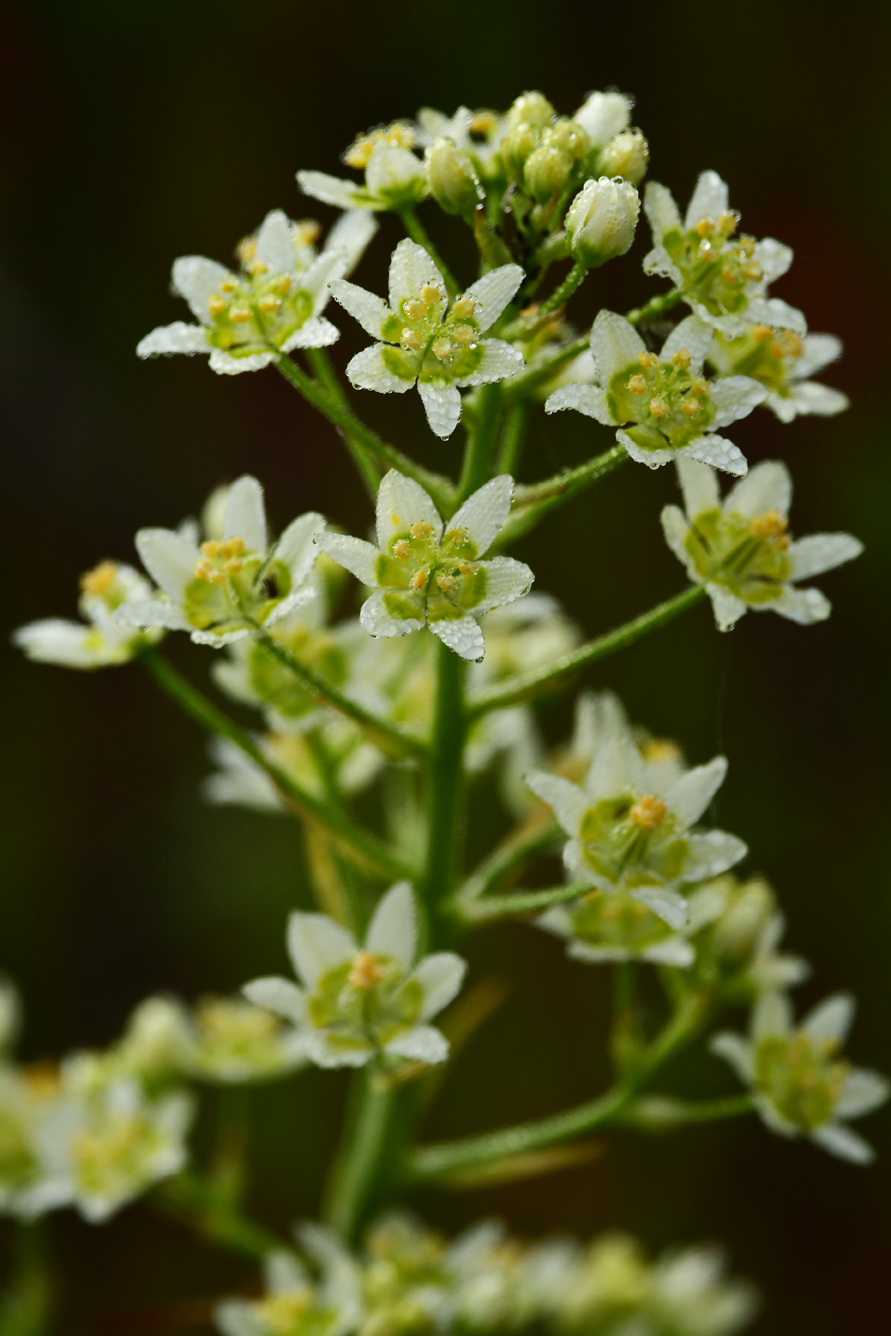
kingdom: Plantae
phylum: Tracheophyta
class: Liliopsida
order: Liliales
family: Melanthiaceae
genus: Toxicoscordion
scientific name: Toxicoscordion fremontii
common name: Fremont's death camas
